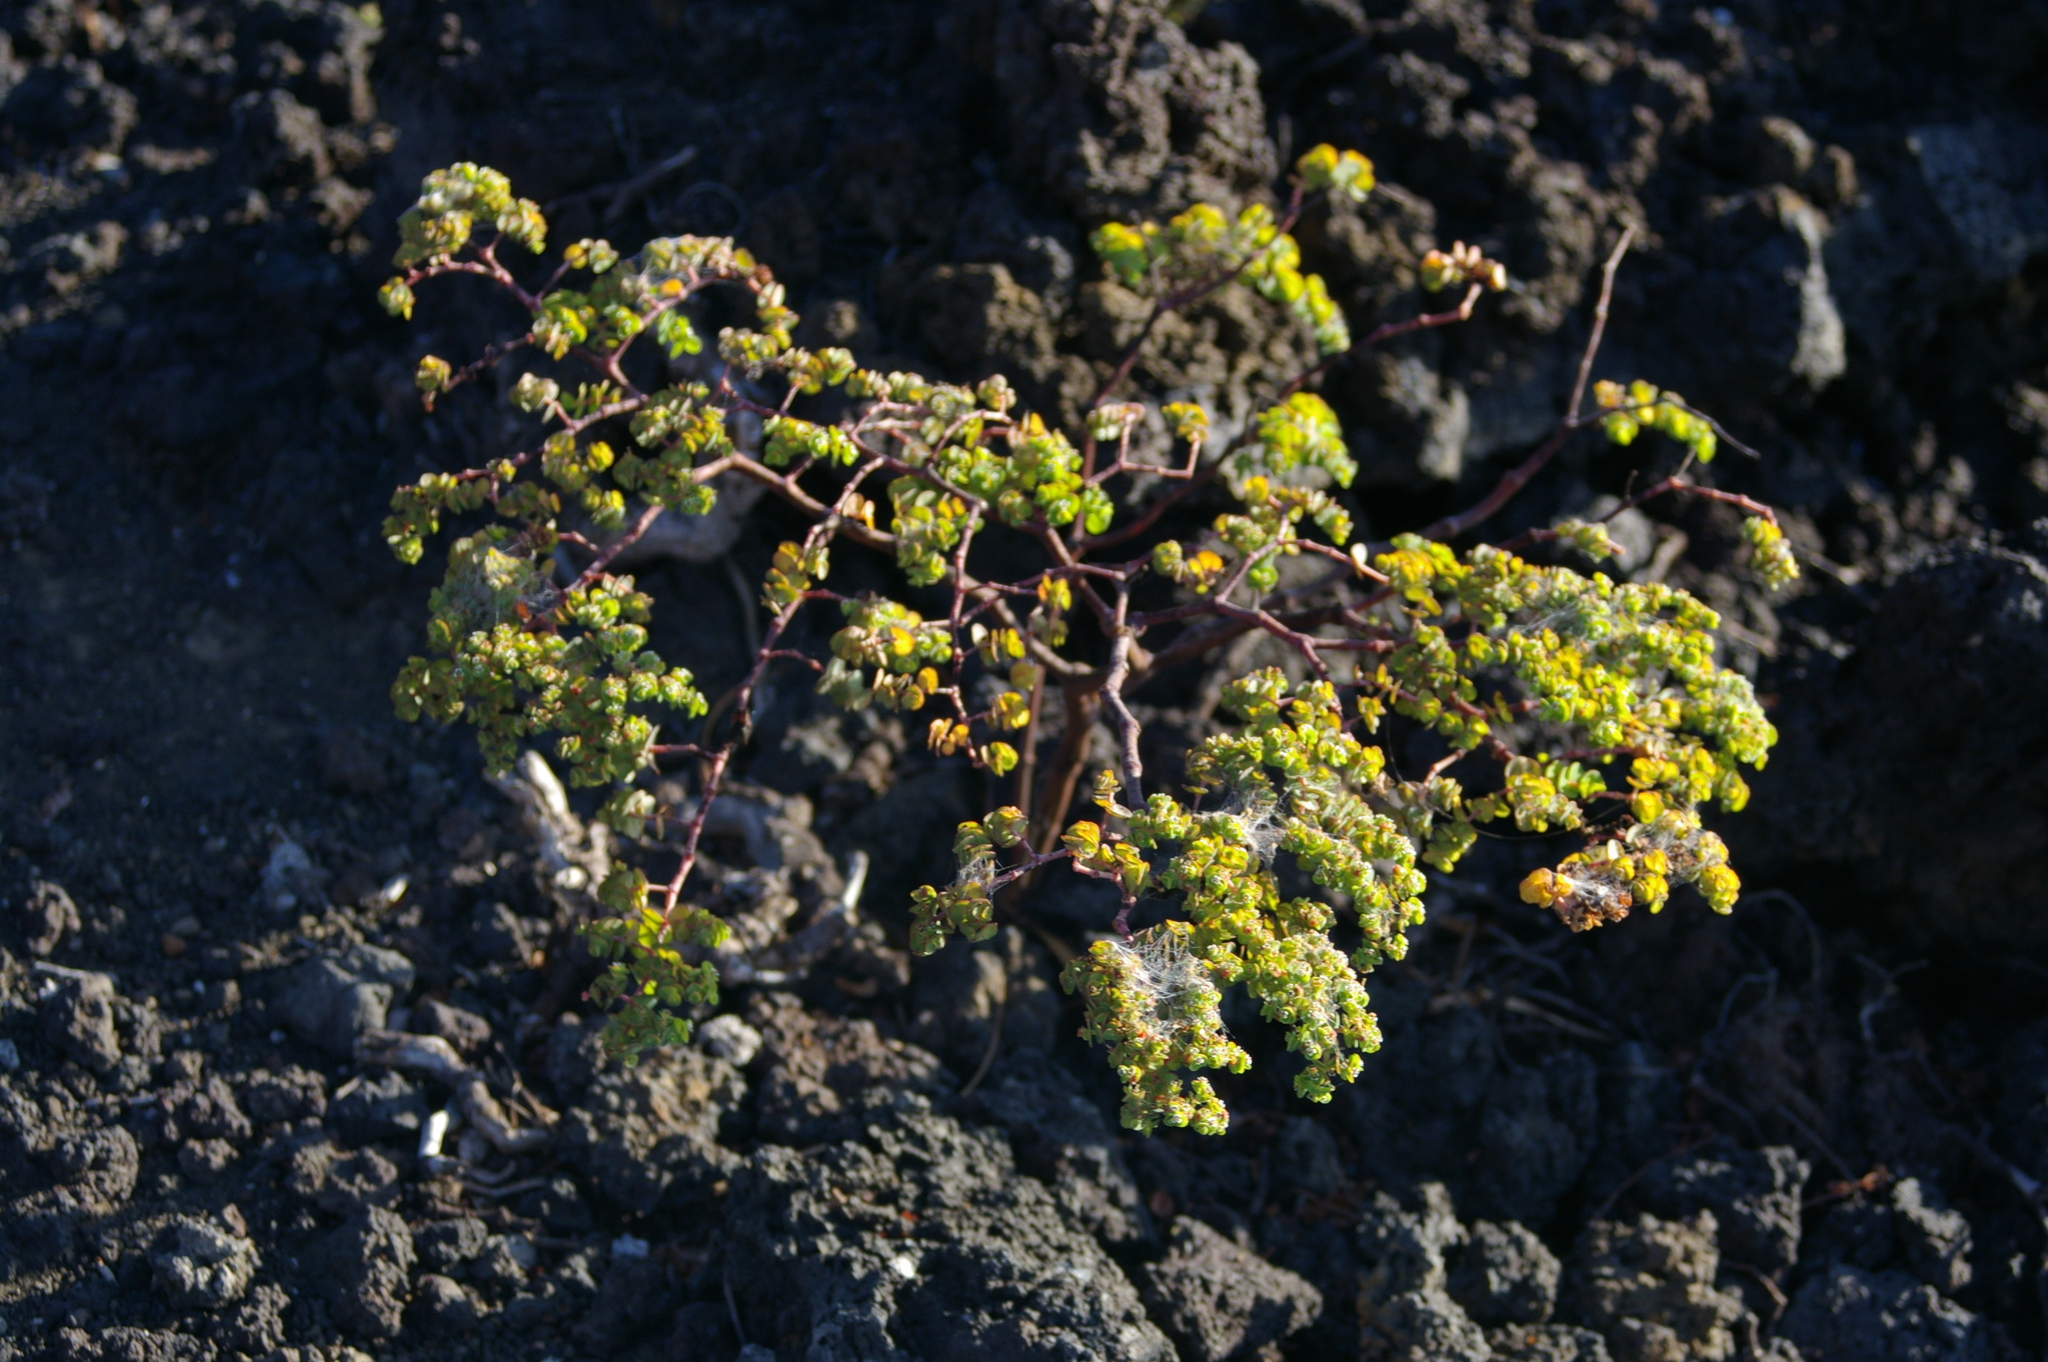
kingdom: Plantae
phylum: Tracheophyta
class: Magnoliopsida
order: Malpighiales
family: Euphorbiaceae
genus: Euphorbia
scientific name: Euphorbia amplexicaulis
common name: Chamaesyce
